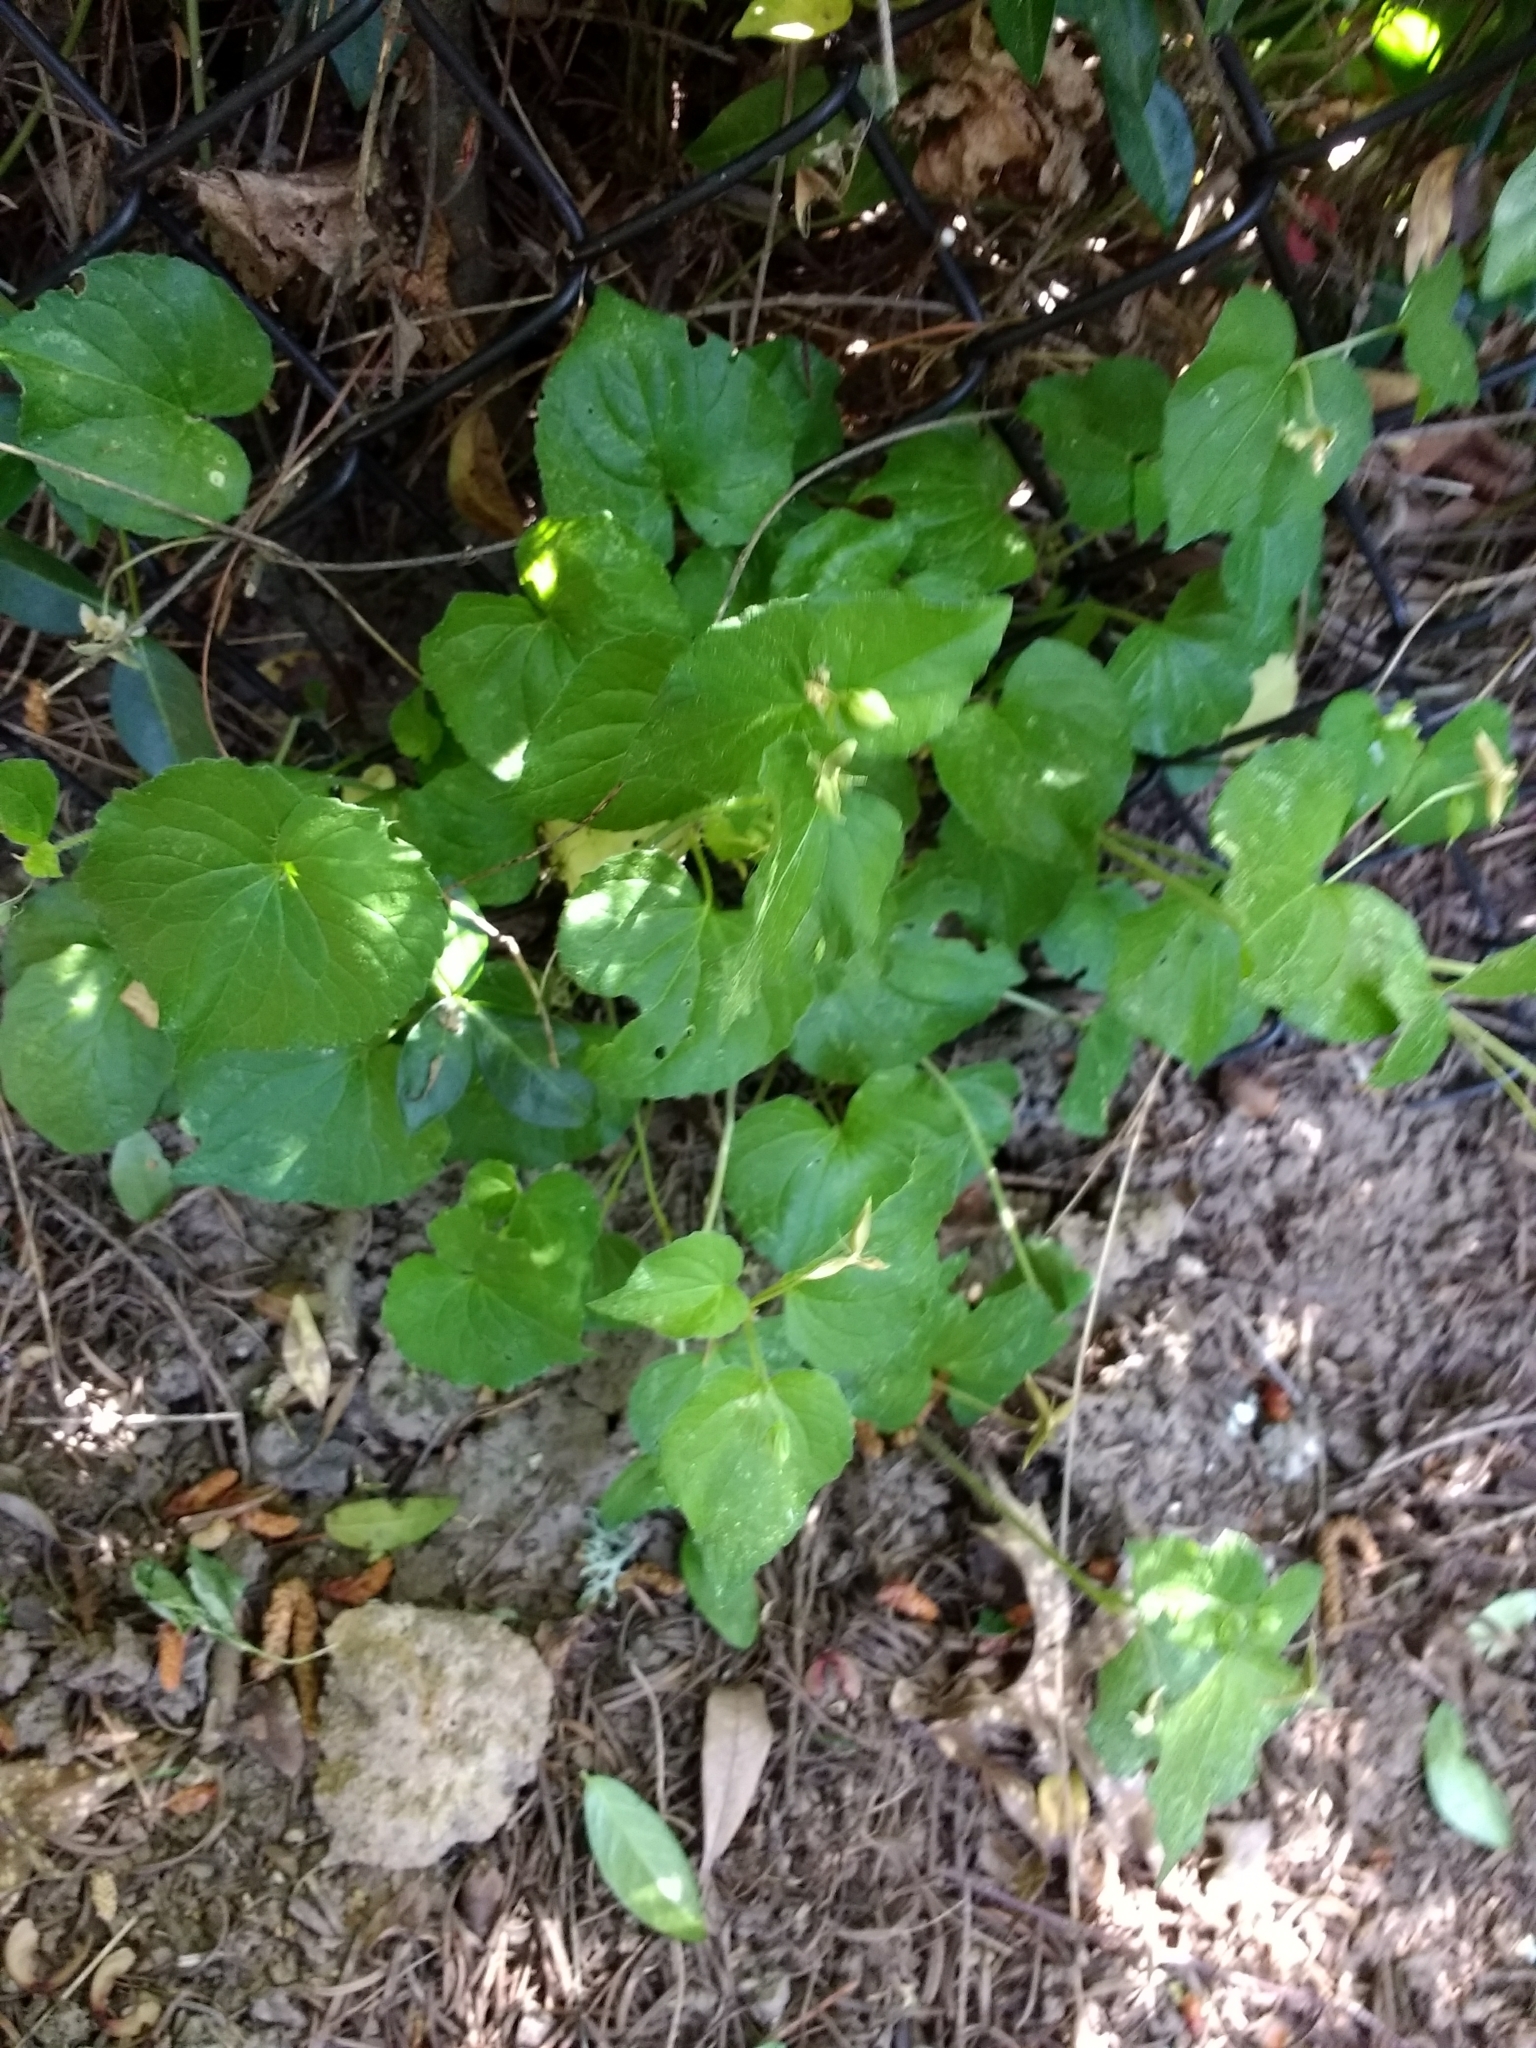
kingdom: Plantae
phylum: Tracheophyta
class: Magnoliopsida
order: Malpighiales
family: Violaceae
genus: Viola
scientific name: Viola glabella
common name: Stream violet
